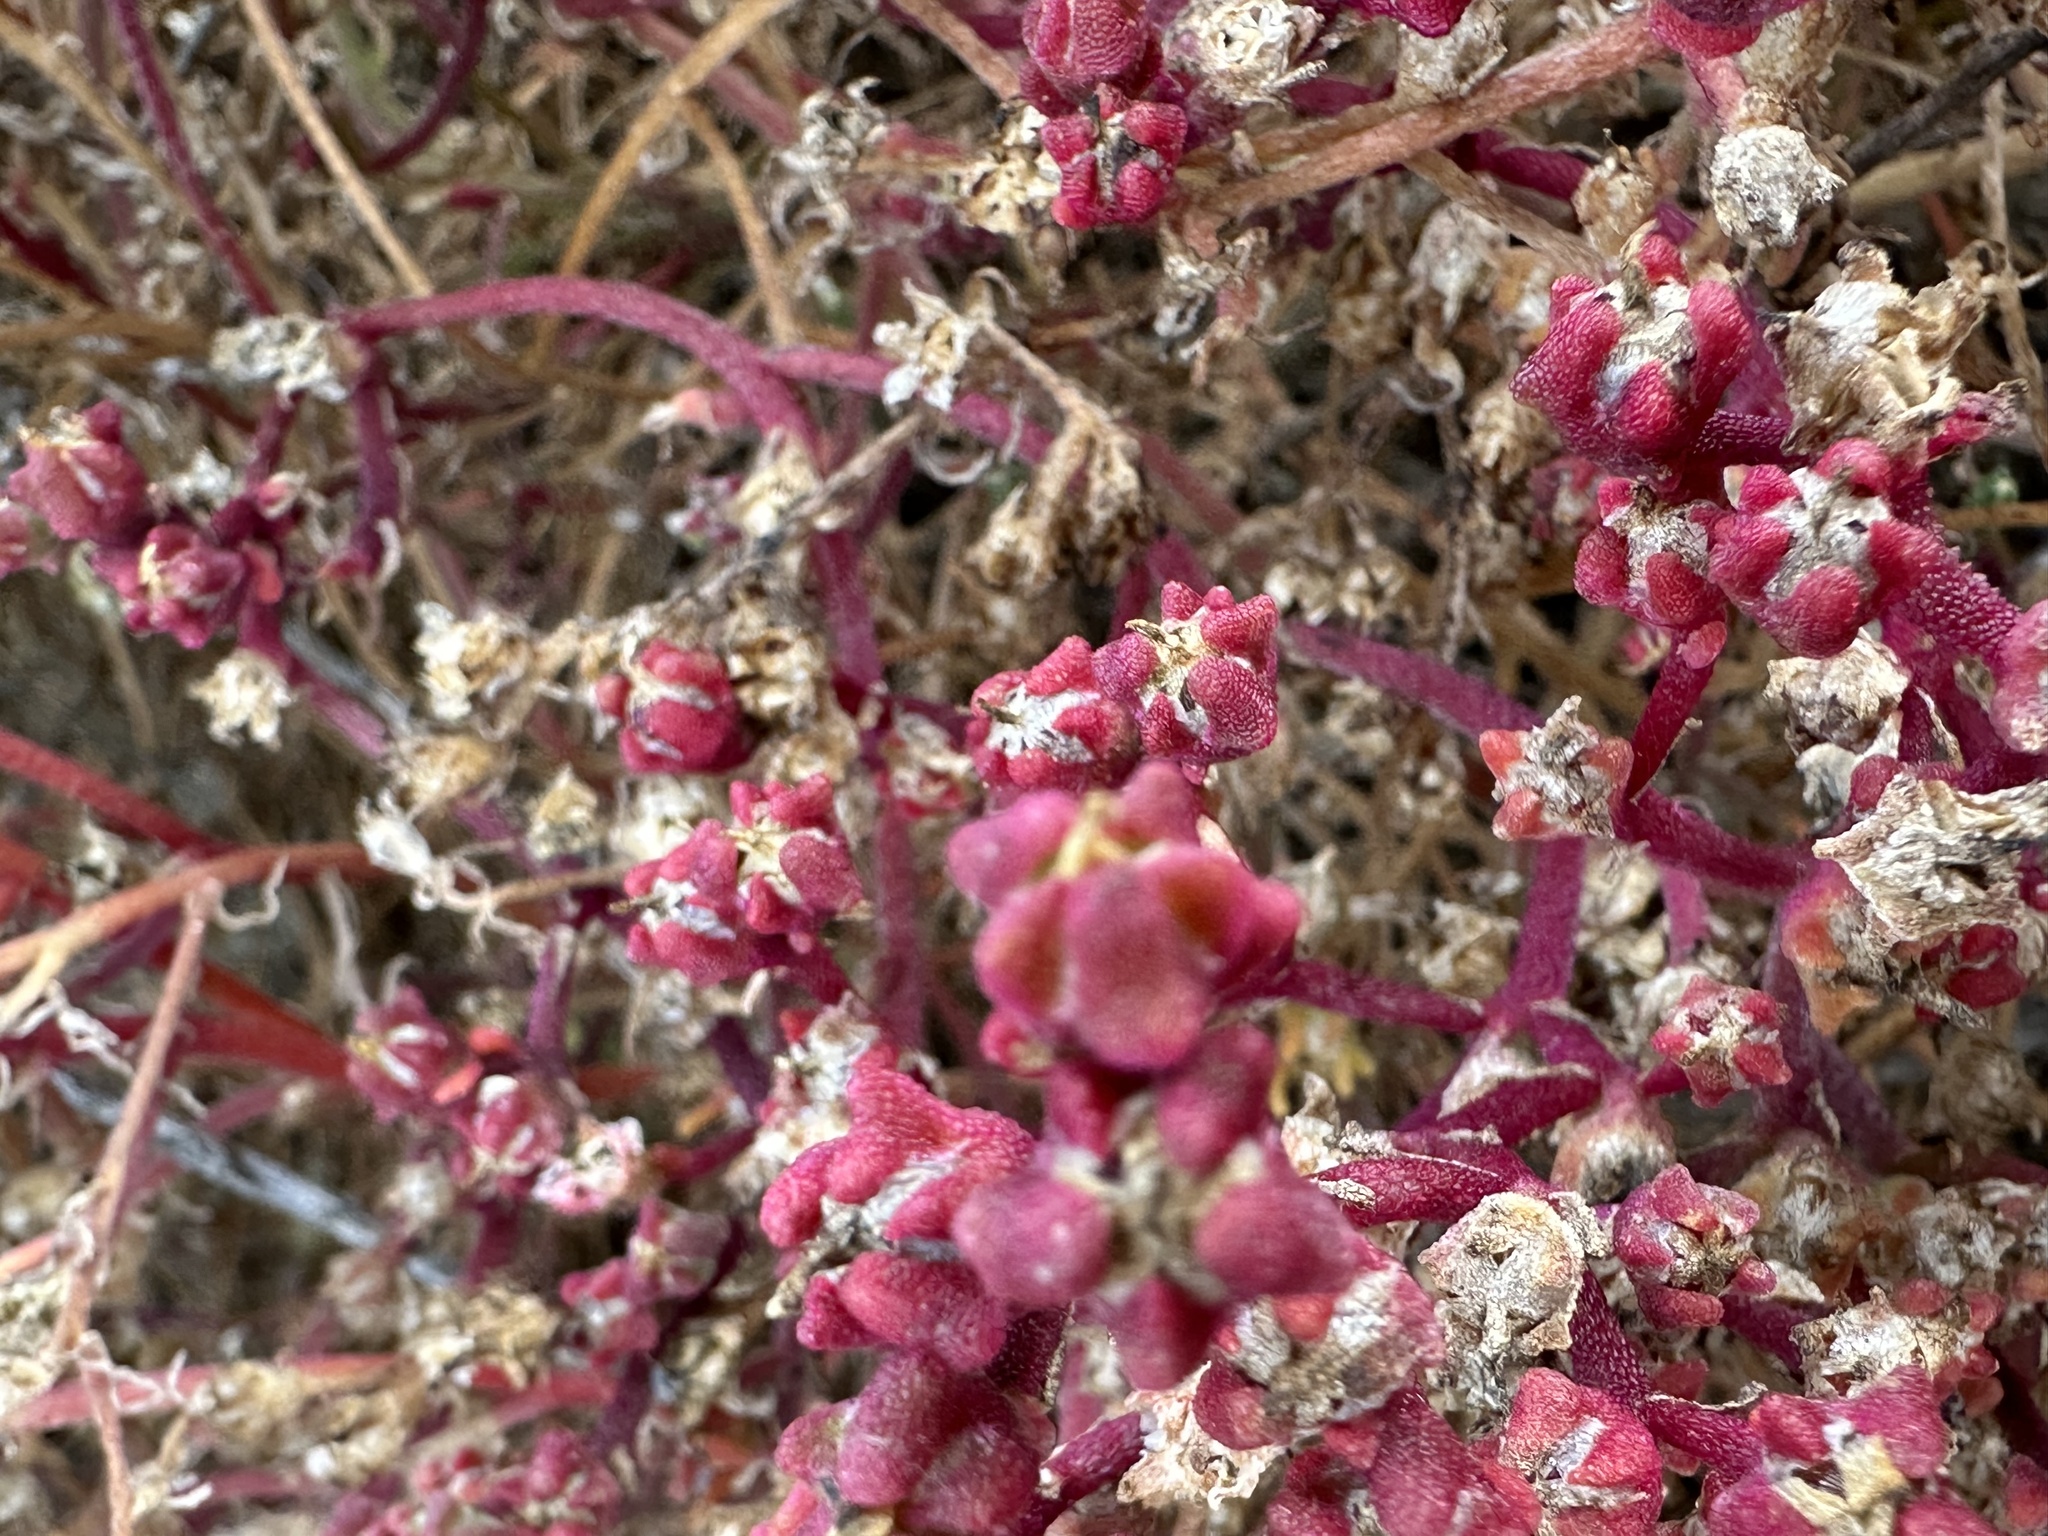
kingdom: Plantae
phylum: Tracheophyta
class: Magnoliopsida
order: Caryophyllales
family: Aizoaceae
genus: Mesembryanthemum
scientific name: Mesembryanthemum nodiflorum
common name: Slenderleaf iceplant
